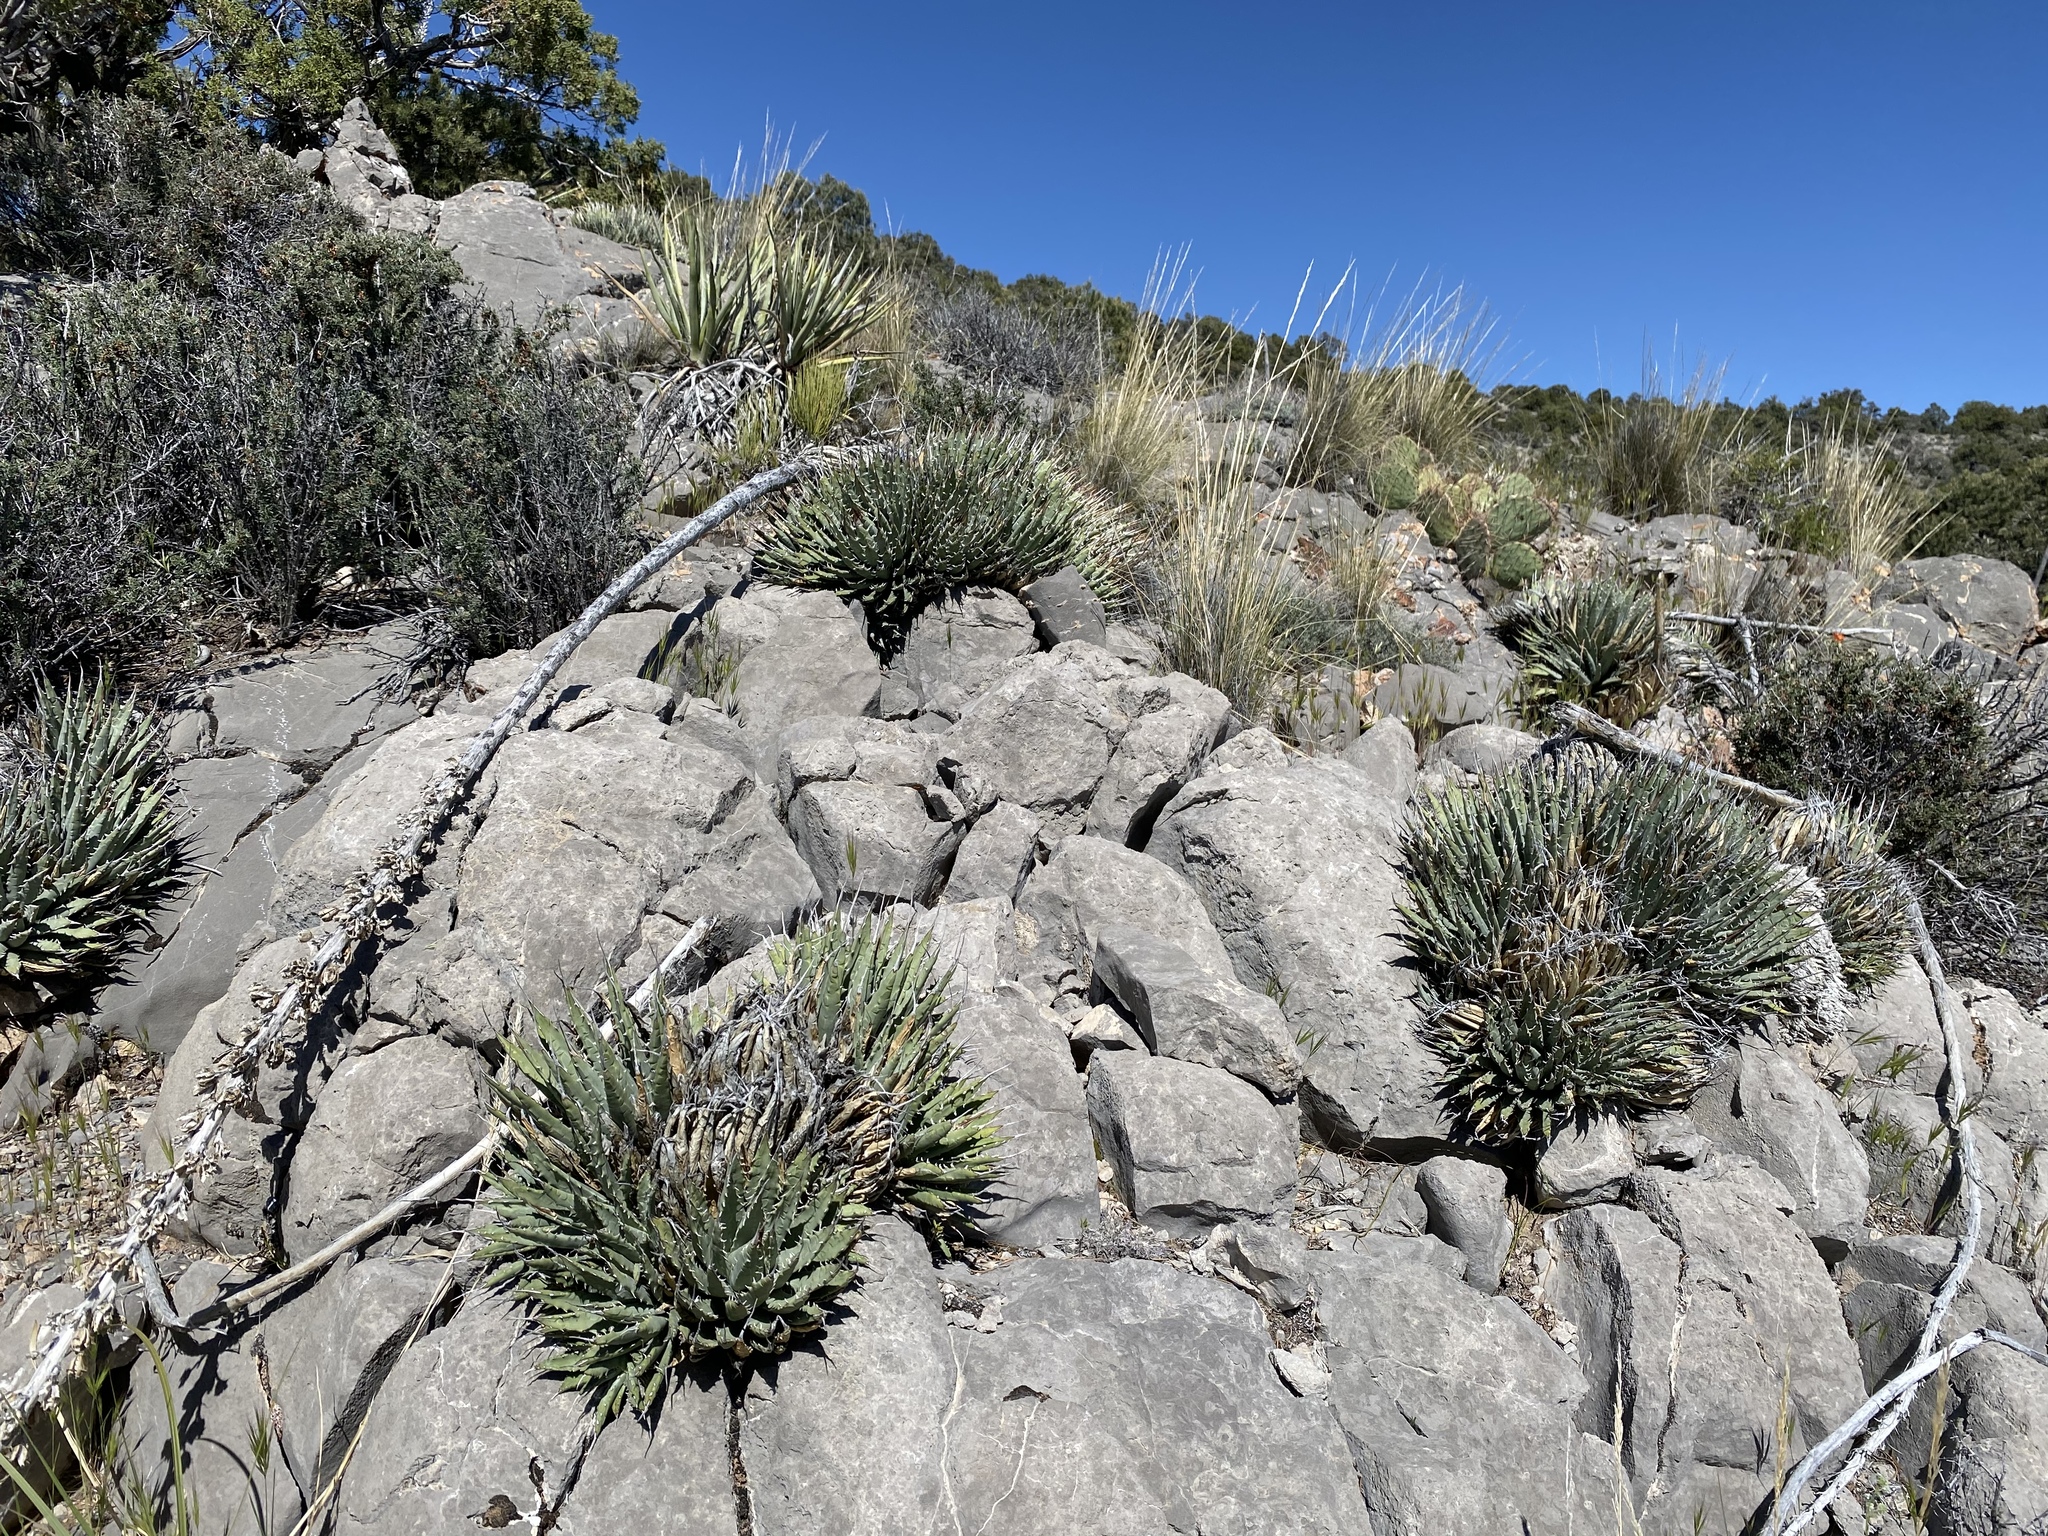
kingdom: Plantae
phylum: Tracheophyta
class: Liliopsida
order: Asparagales
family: Asparagaceae
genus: Agave
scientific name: Agave utahensis
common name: Utah agave
